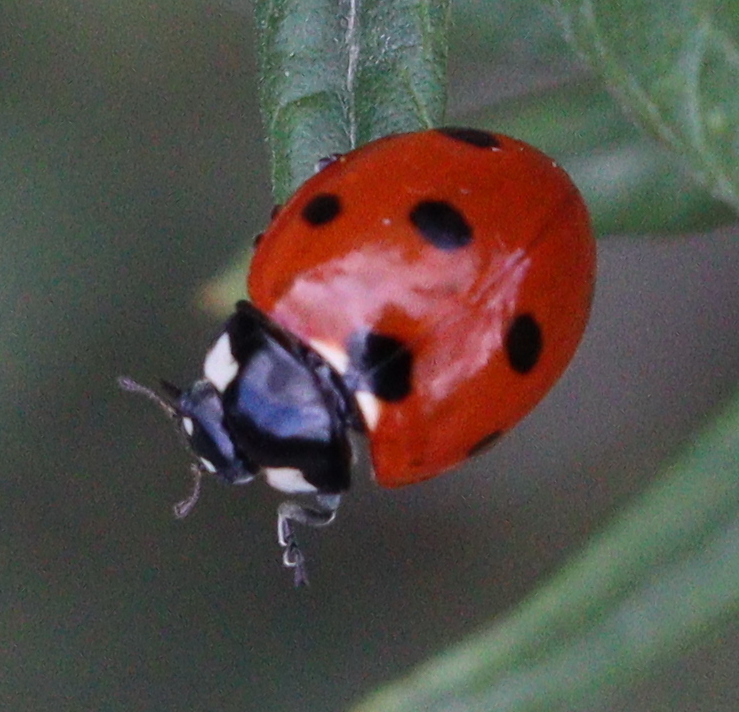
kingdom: Animalia
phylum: Arthropoda
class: Insecta
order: Coleoptera
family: Coccinellidae
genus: Coccinella
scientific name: Coccinella septempunctata
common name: Sevenspotted lady beetle
